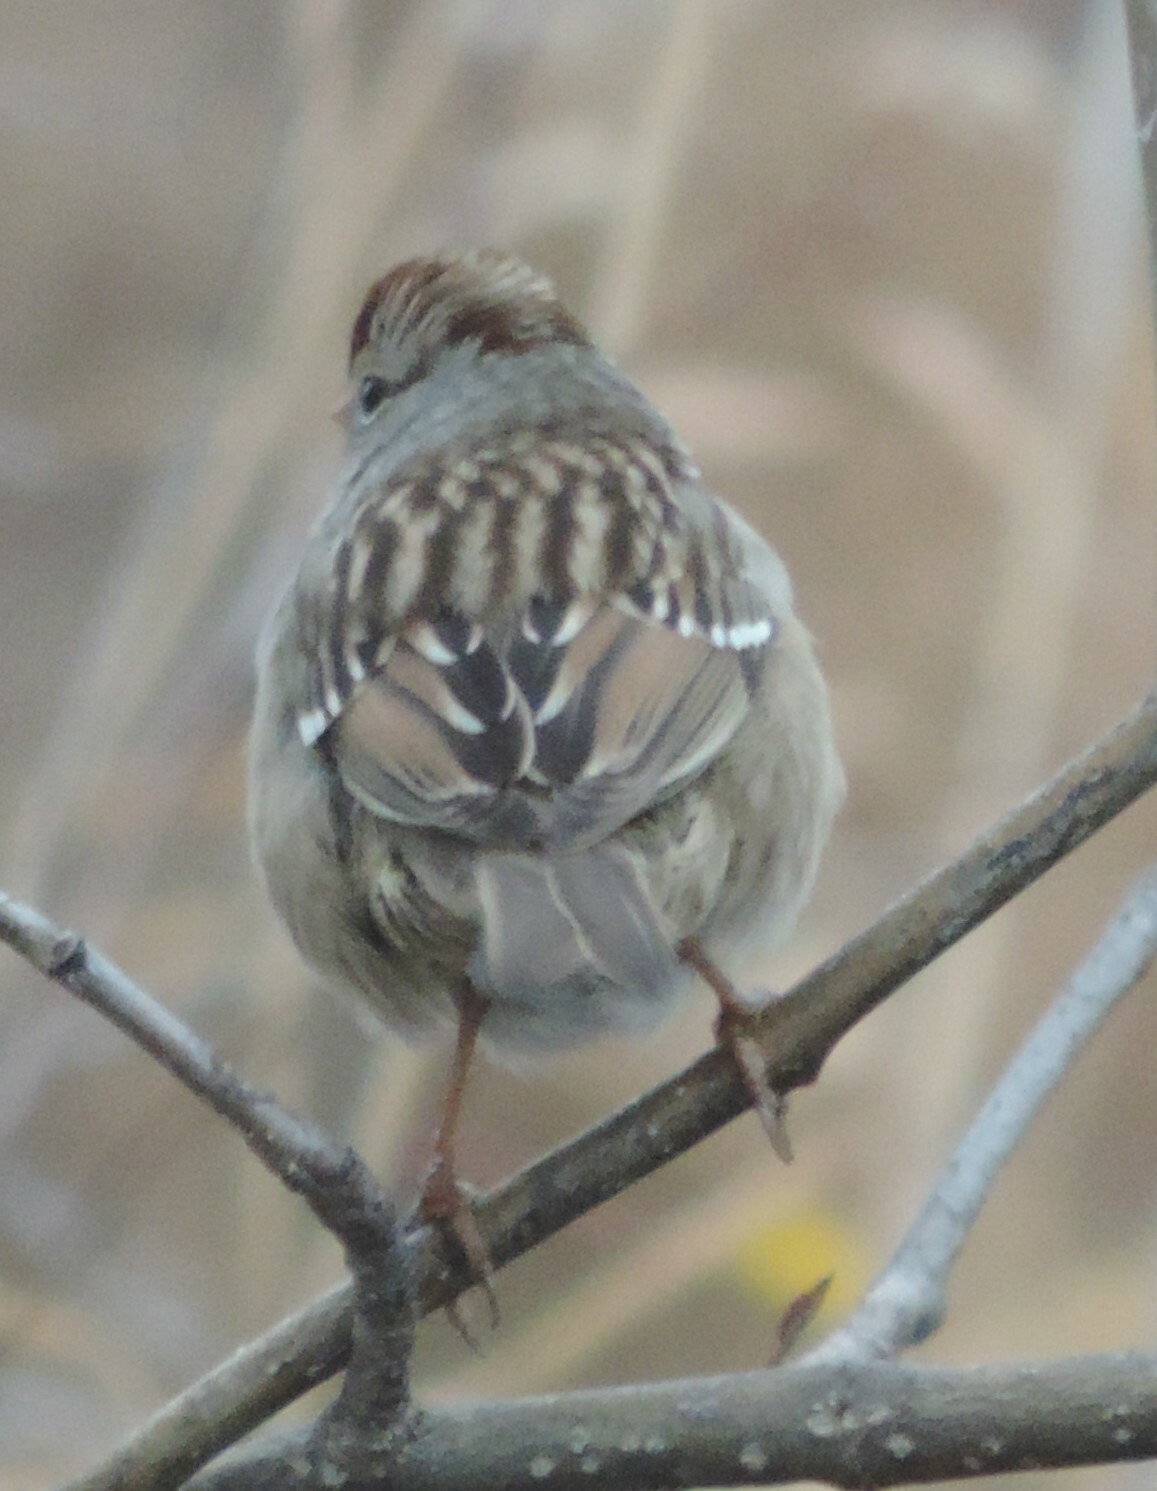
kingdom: Animalia
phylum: Chordata
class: Aves
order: Passeriformes
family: Passerellidae
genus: Zonotrichia
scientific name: Zonotrichia leucophrys
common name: White-crowned sparrow
